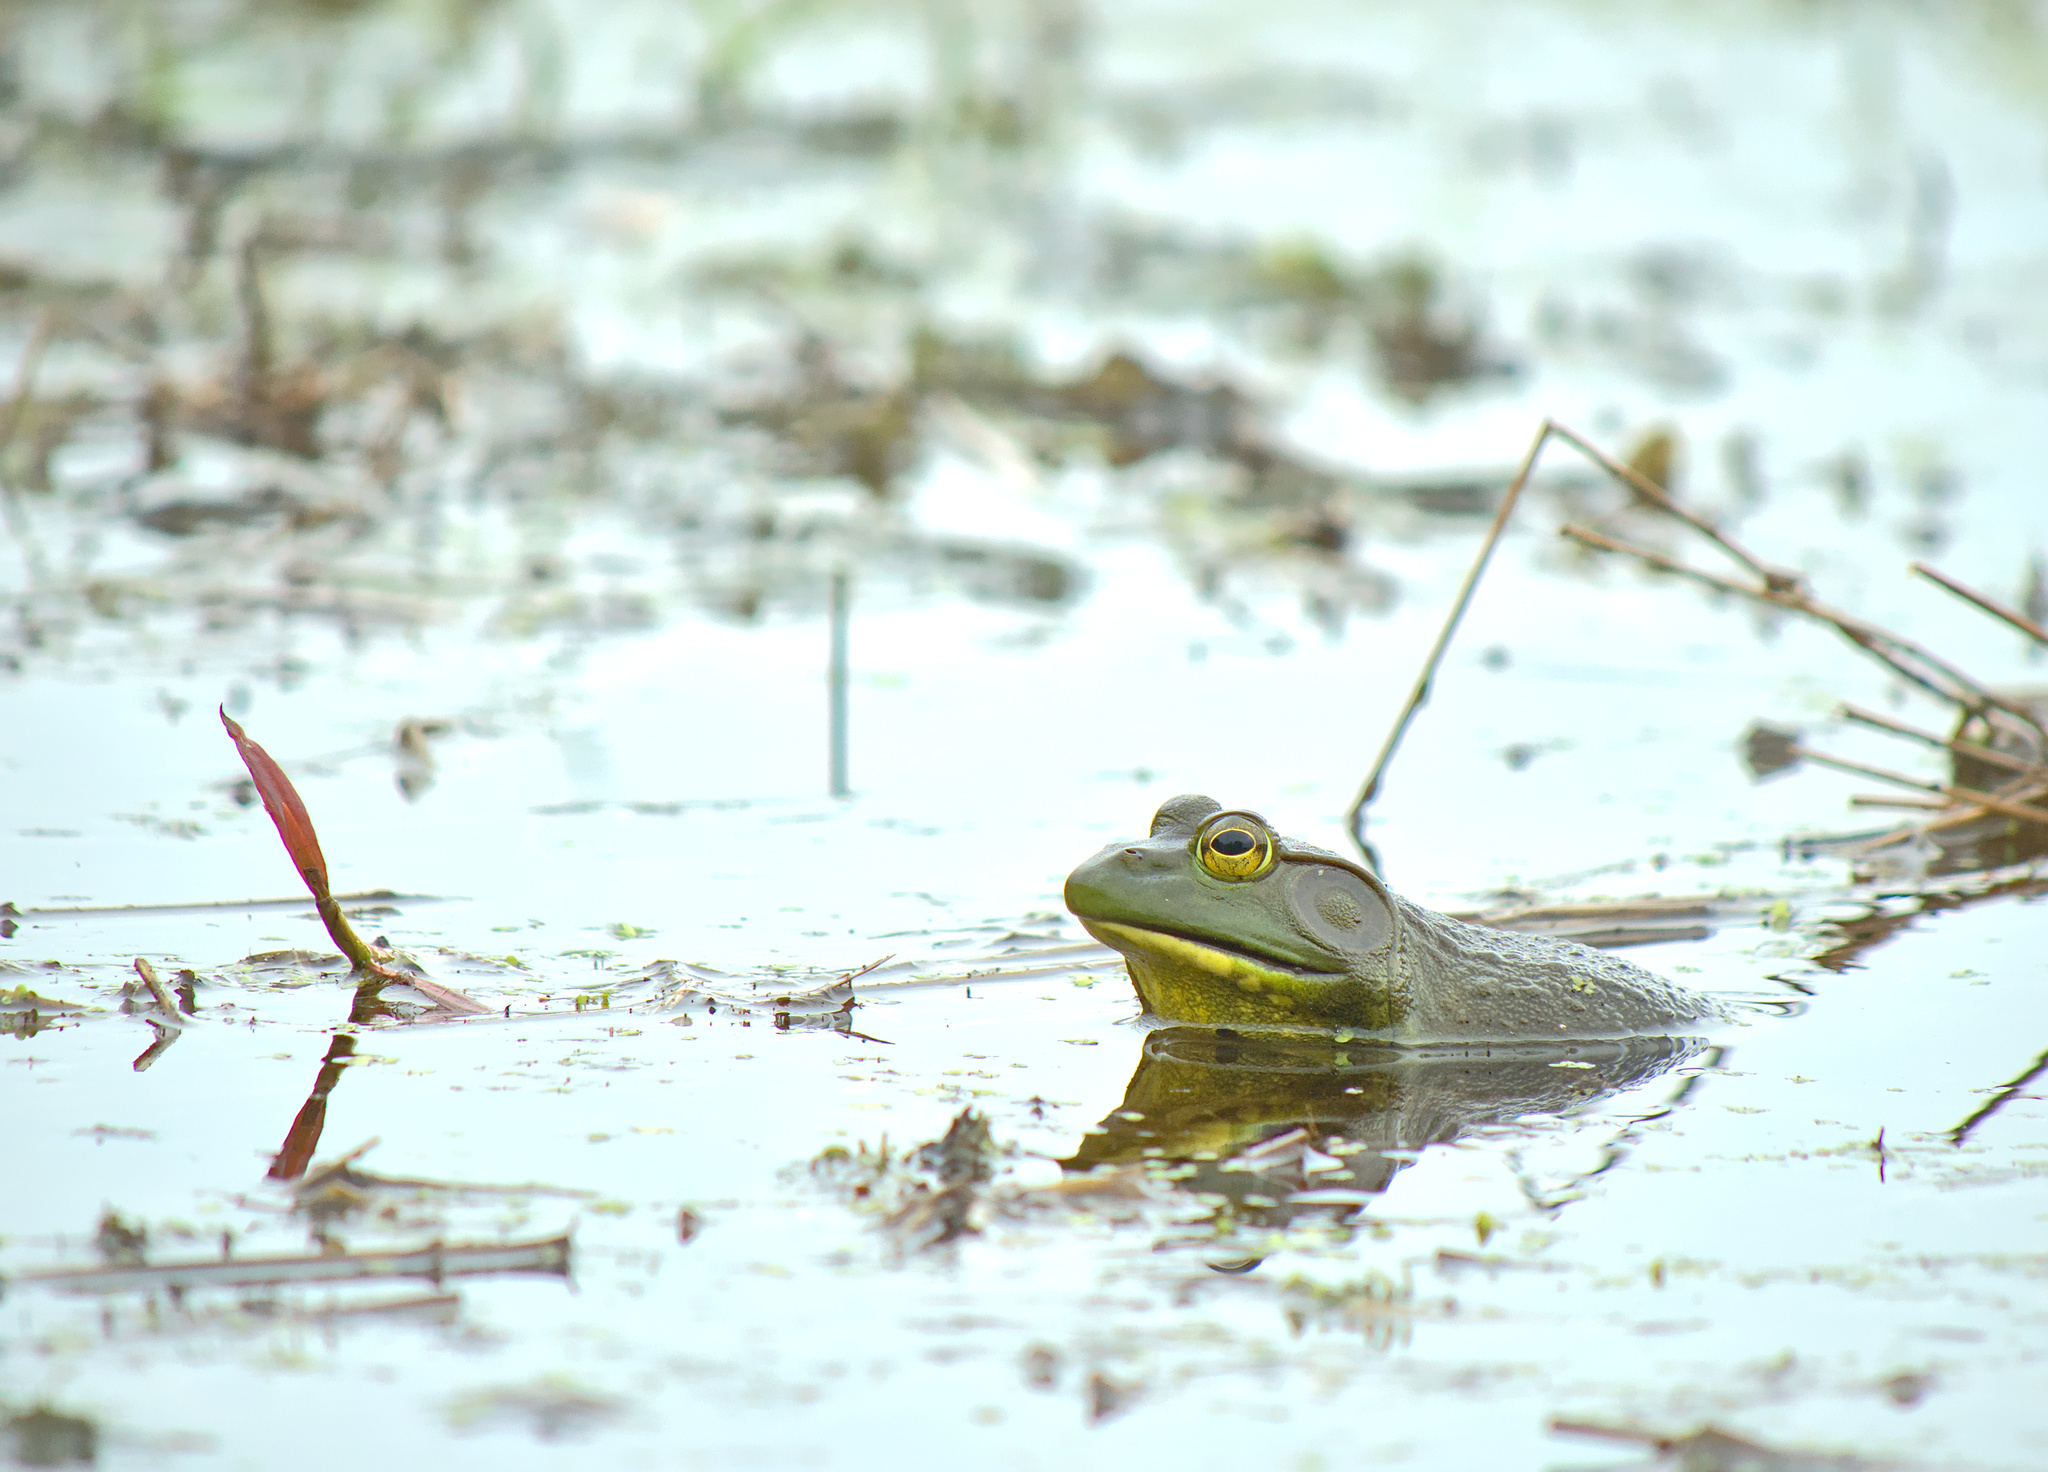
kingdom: Animalia
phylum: Chordata
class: Amphibia
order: Anura
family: Ranidae
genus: Lithobates
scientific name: Lithobates catesbeianus
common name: American bullfrog
